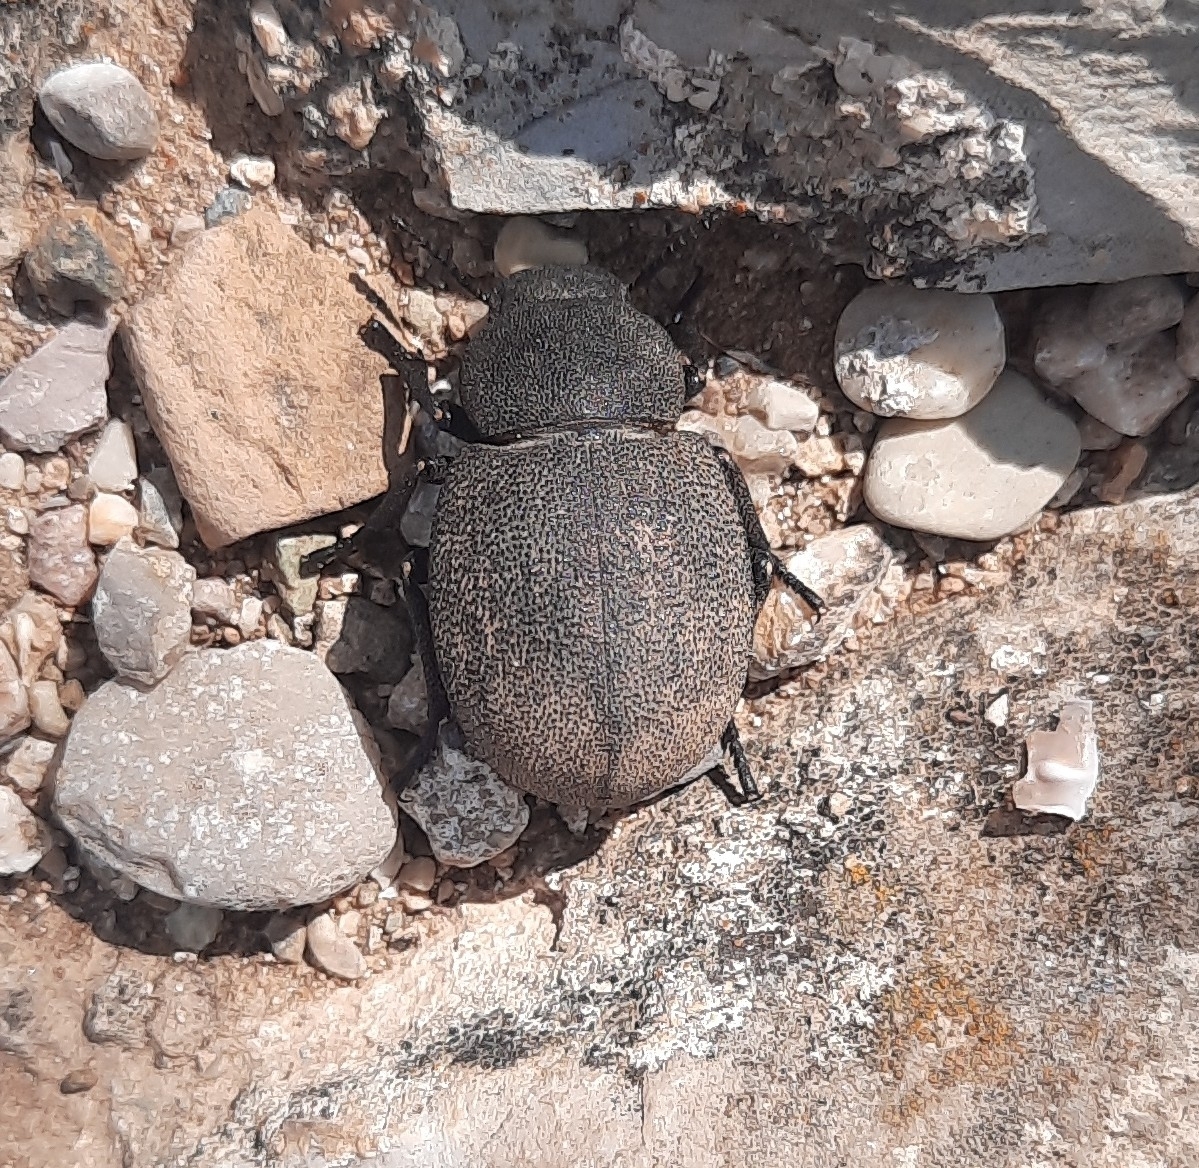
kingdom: Animalia
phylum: Arthropoda
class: Insecta
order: Coleoptera
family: Tenebrionidae
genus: Phymatiotris
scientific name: Phymatiotris
